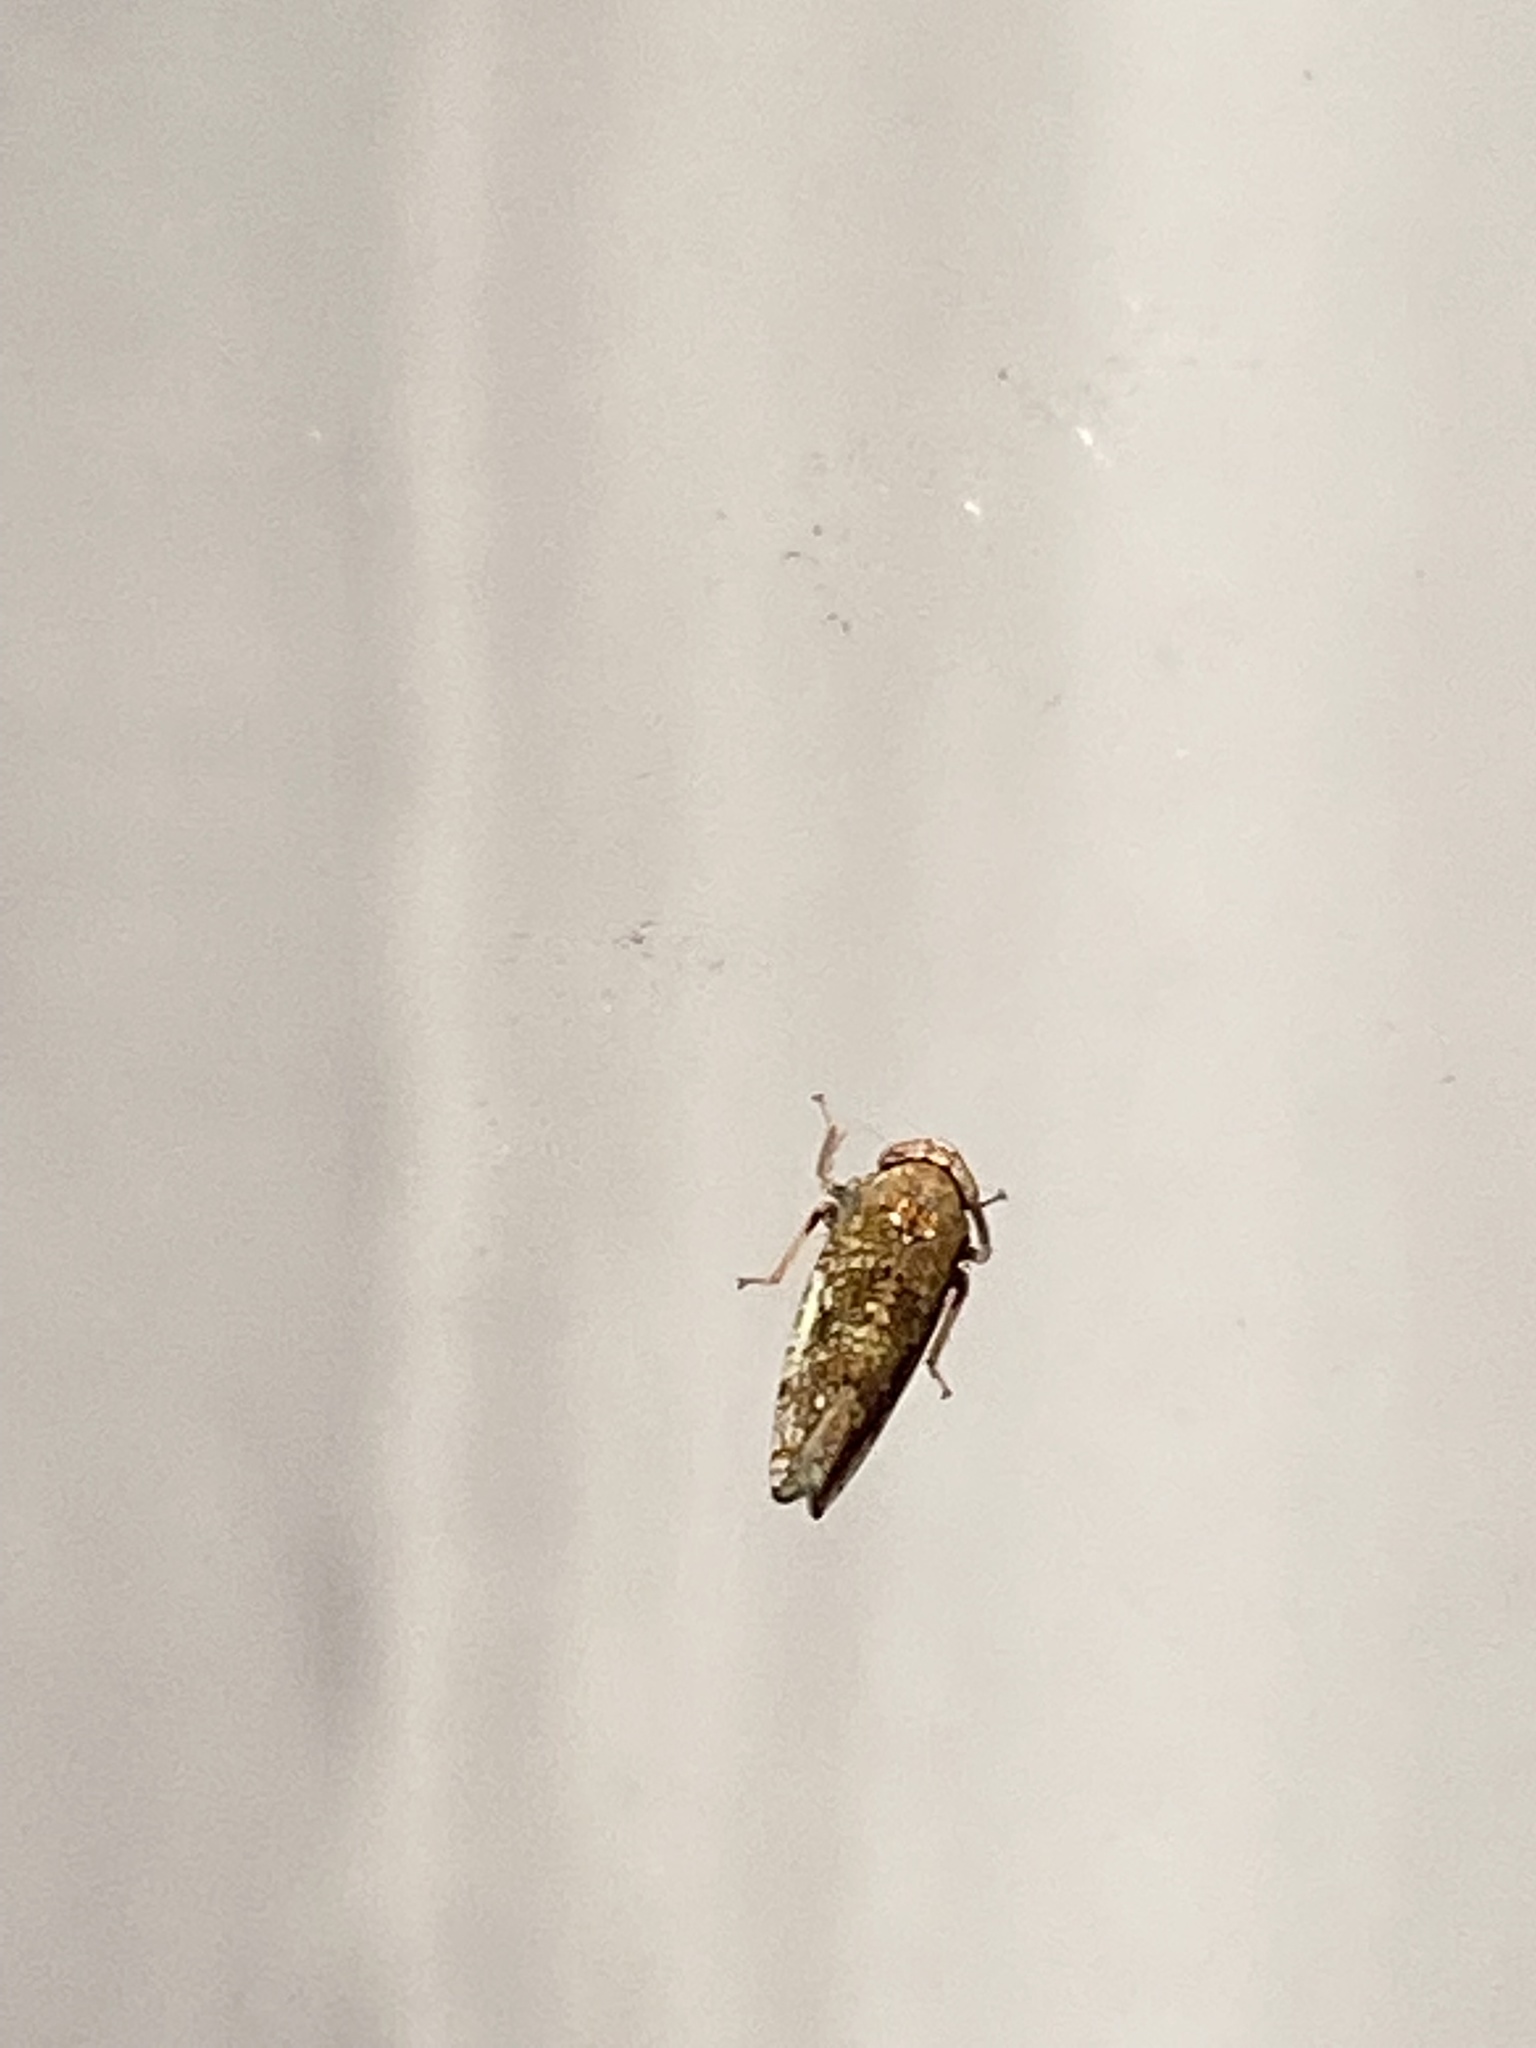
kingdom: Animalia
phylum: Arthropoda
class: Insecta
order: Hemiptera
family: Cicadellidae
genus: Orientus
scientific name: Orientus ishidae
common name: Japanese leafhopper
